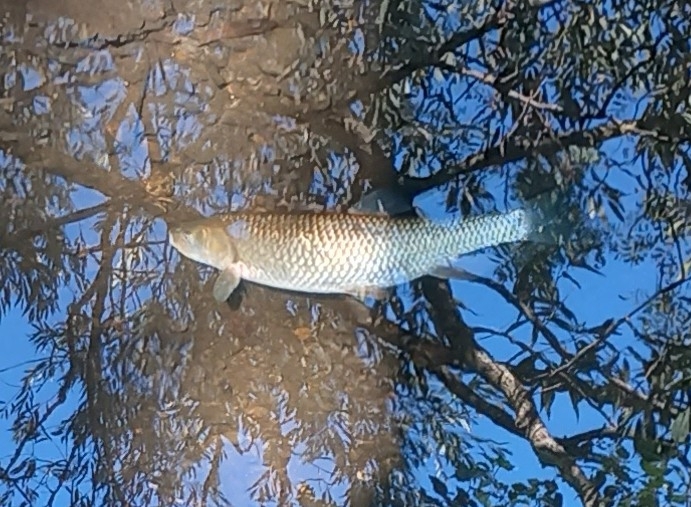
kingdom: Animalia
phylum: Chordata
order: Cypriniformes
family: Cyprinidae
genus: Squalius
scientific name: Squalius cephalus
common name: Chub
